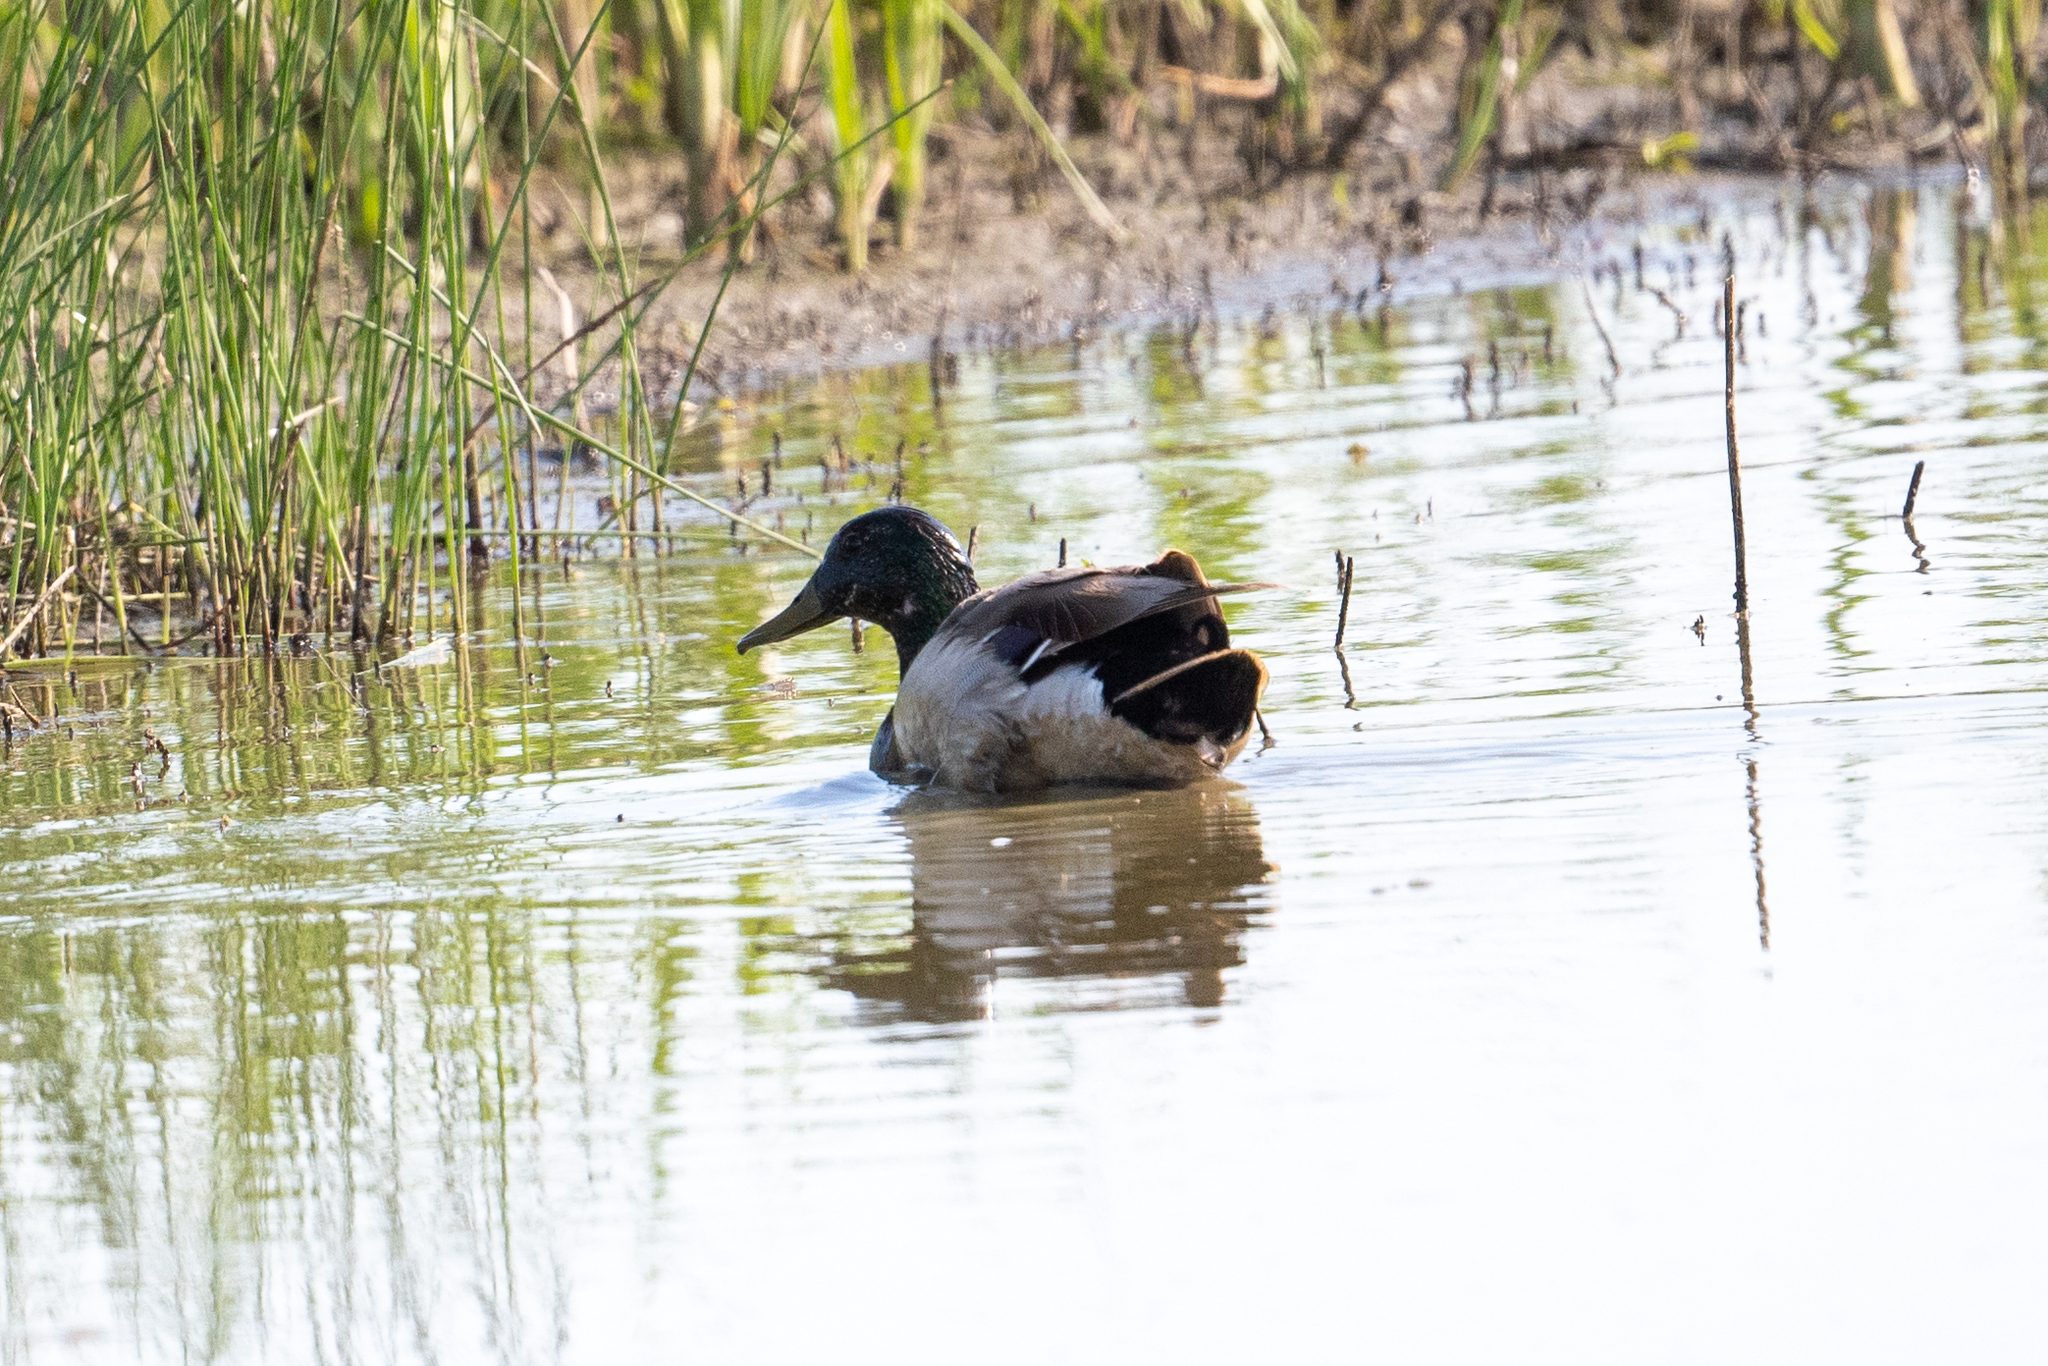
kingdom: Animalia
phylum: Chordata
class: Aves
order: Anseriformes
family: Anatidae
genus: Anas
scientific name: Anas platyrhynchos
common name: Mallard
